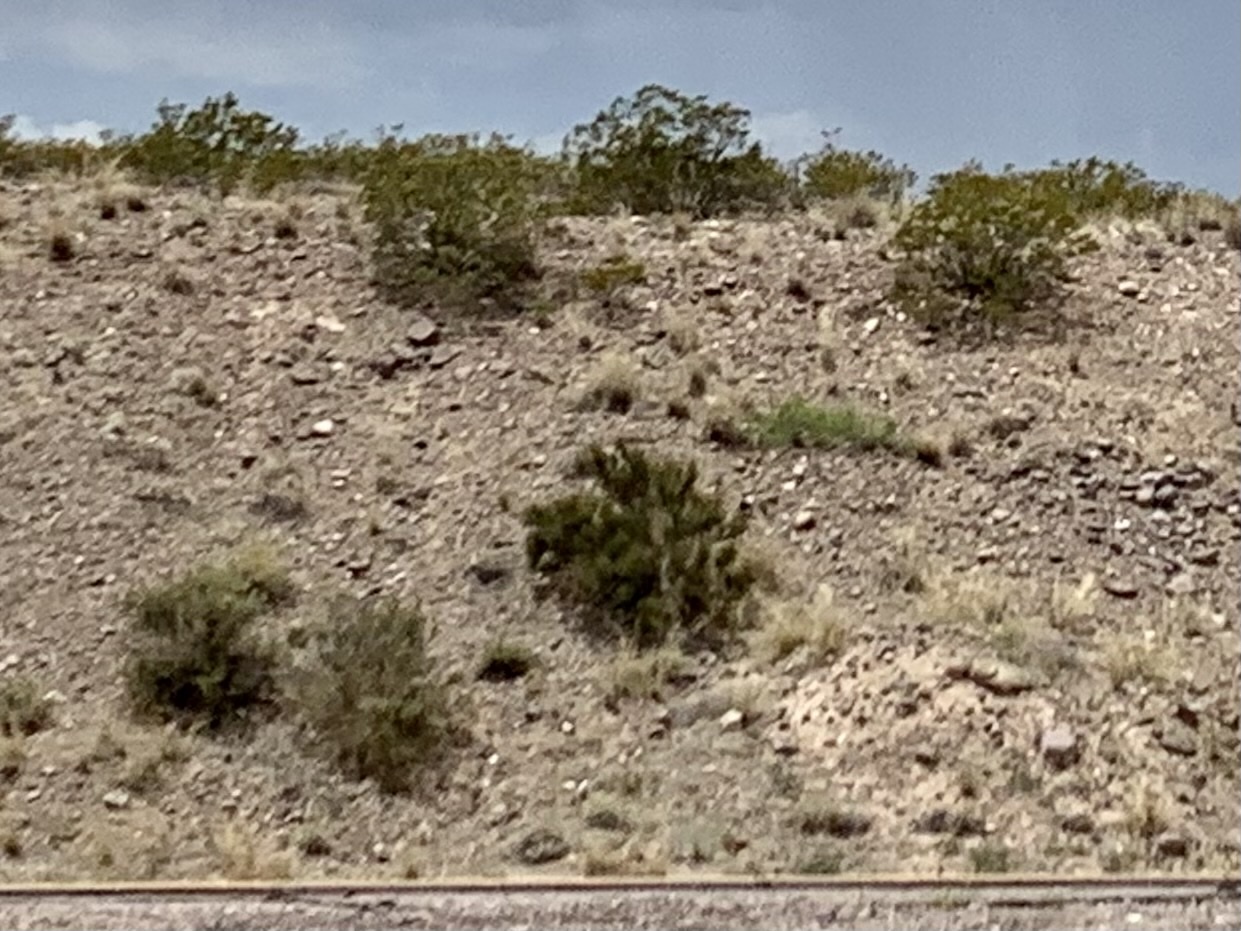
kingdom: Plantae
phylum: Tracheophyta
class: Magnoliopsida
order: Zygophyllales
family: Zygophyllaceae
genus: Larrea
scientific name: Larrea tridentata
